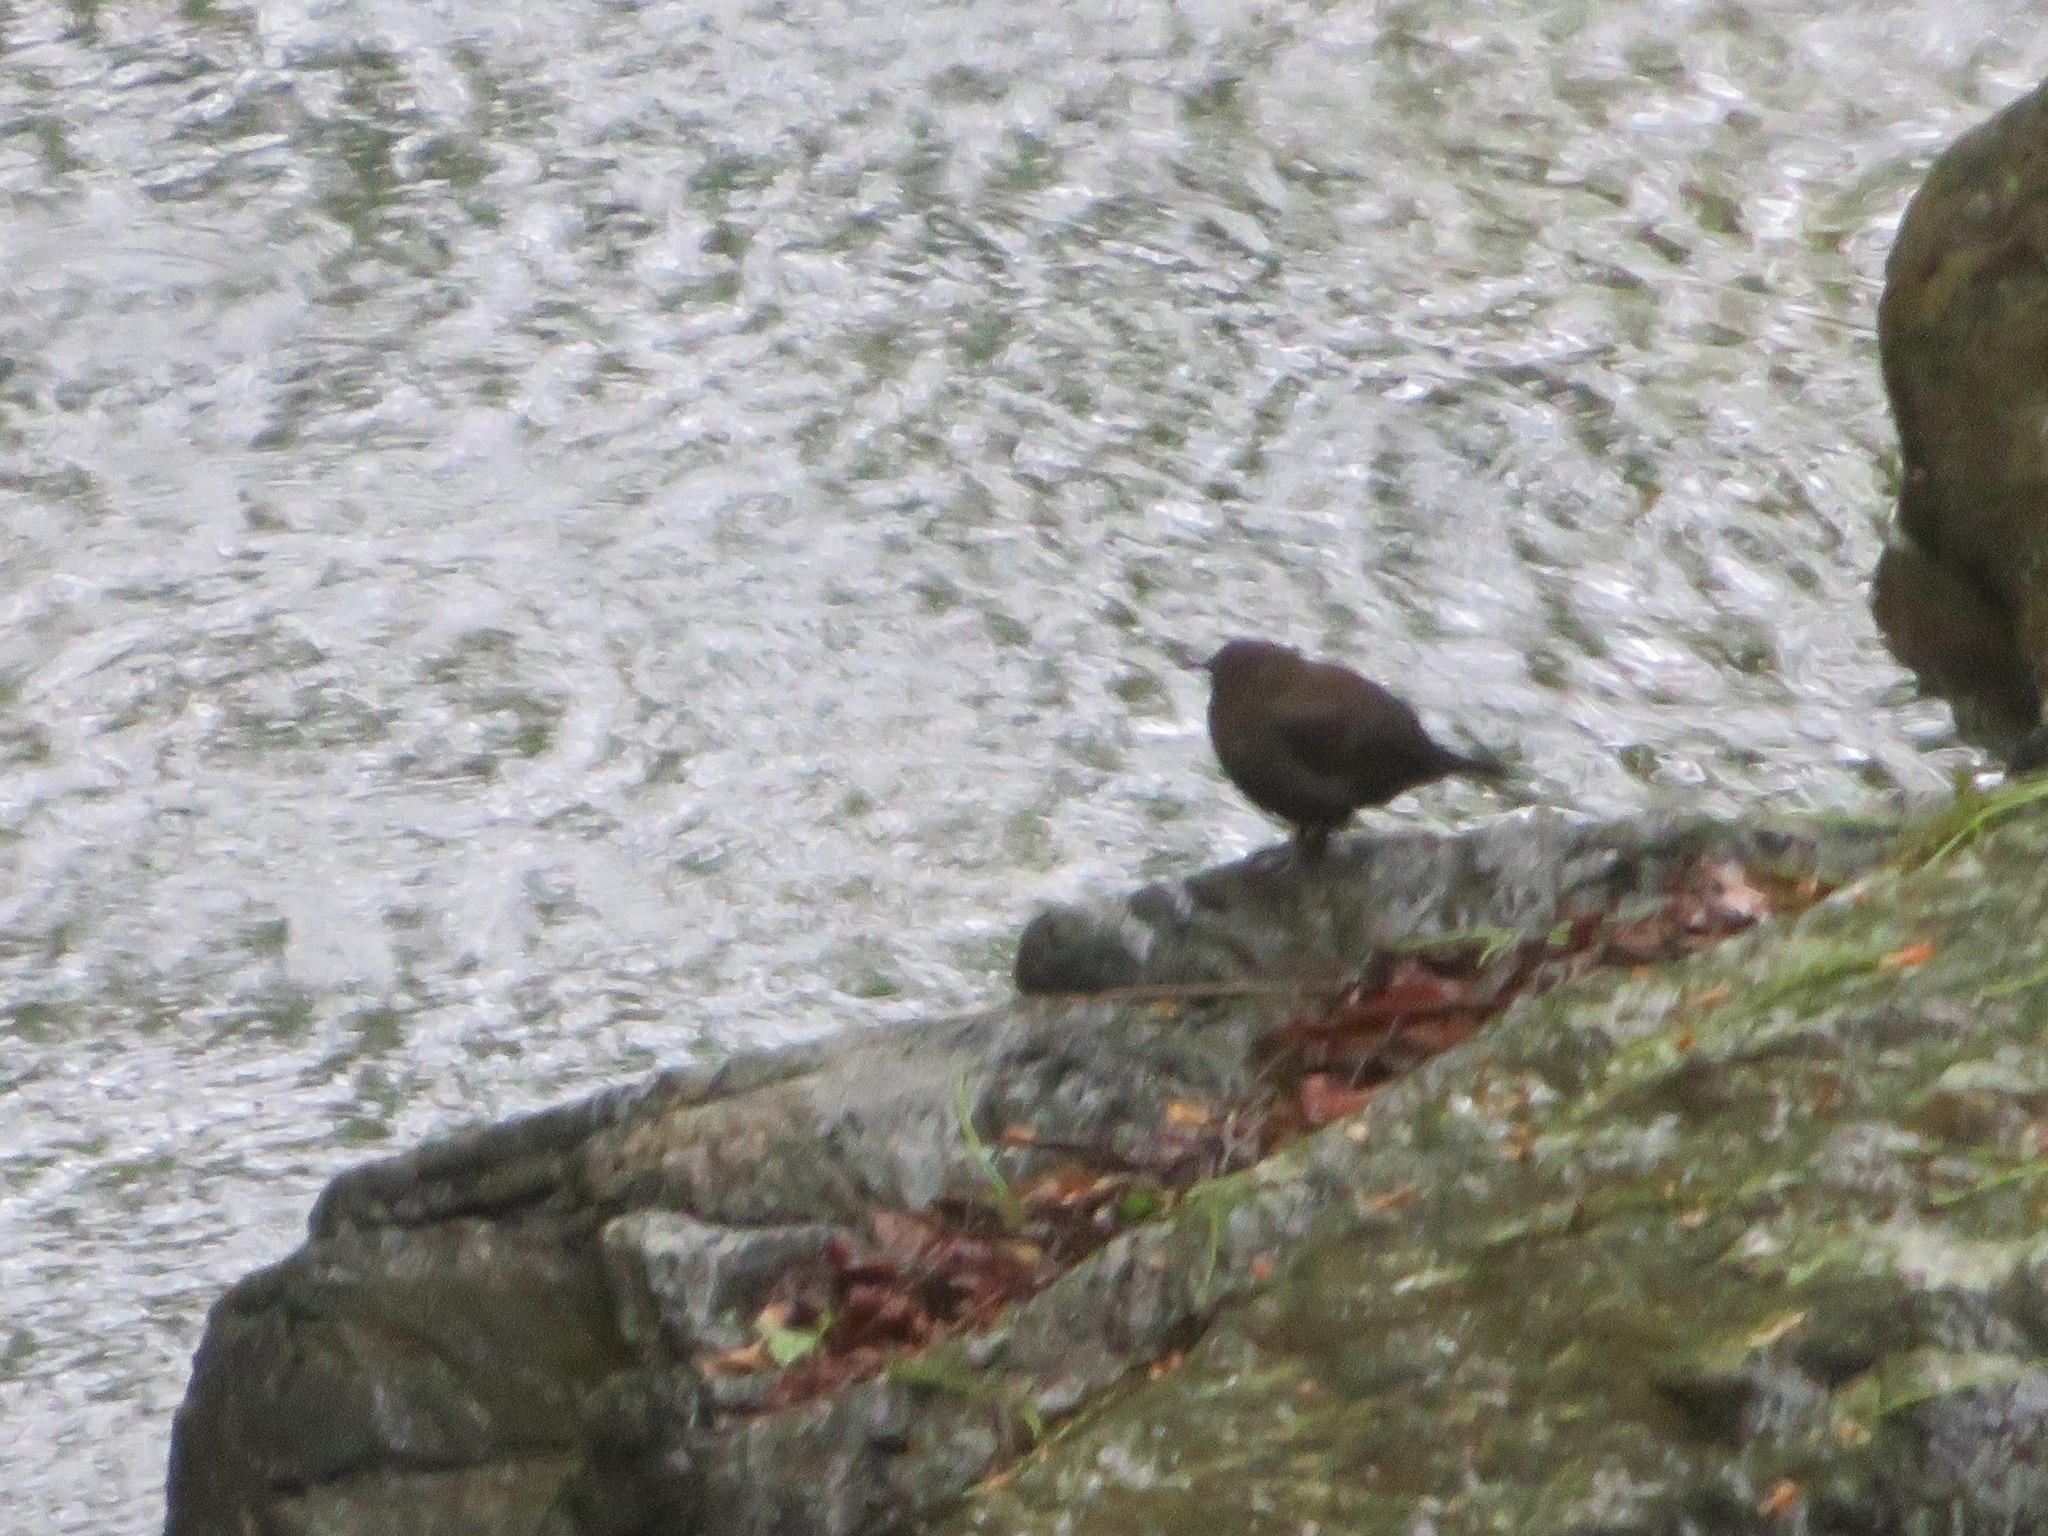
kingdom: Animalia
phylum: Chordata
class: Aves
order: Passeriformes
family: Cinclidae
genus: Cinclus
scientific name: Cinclus pallasii
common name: Brown dipper
